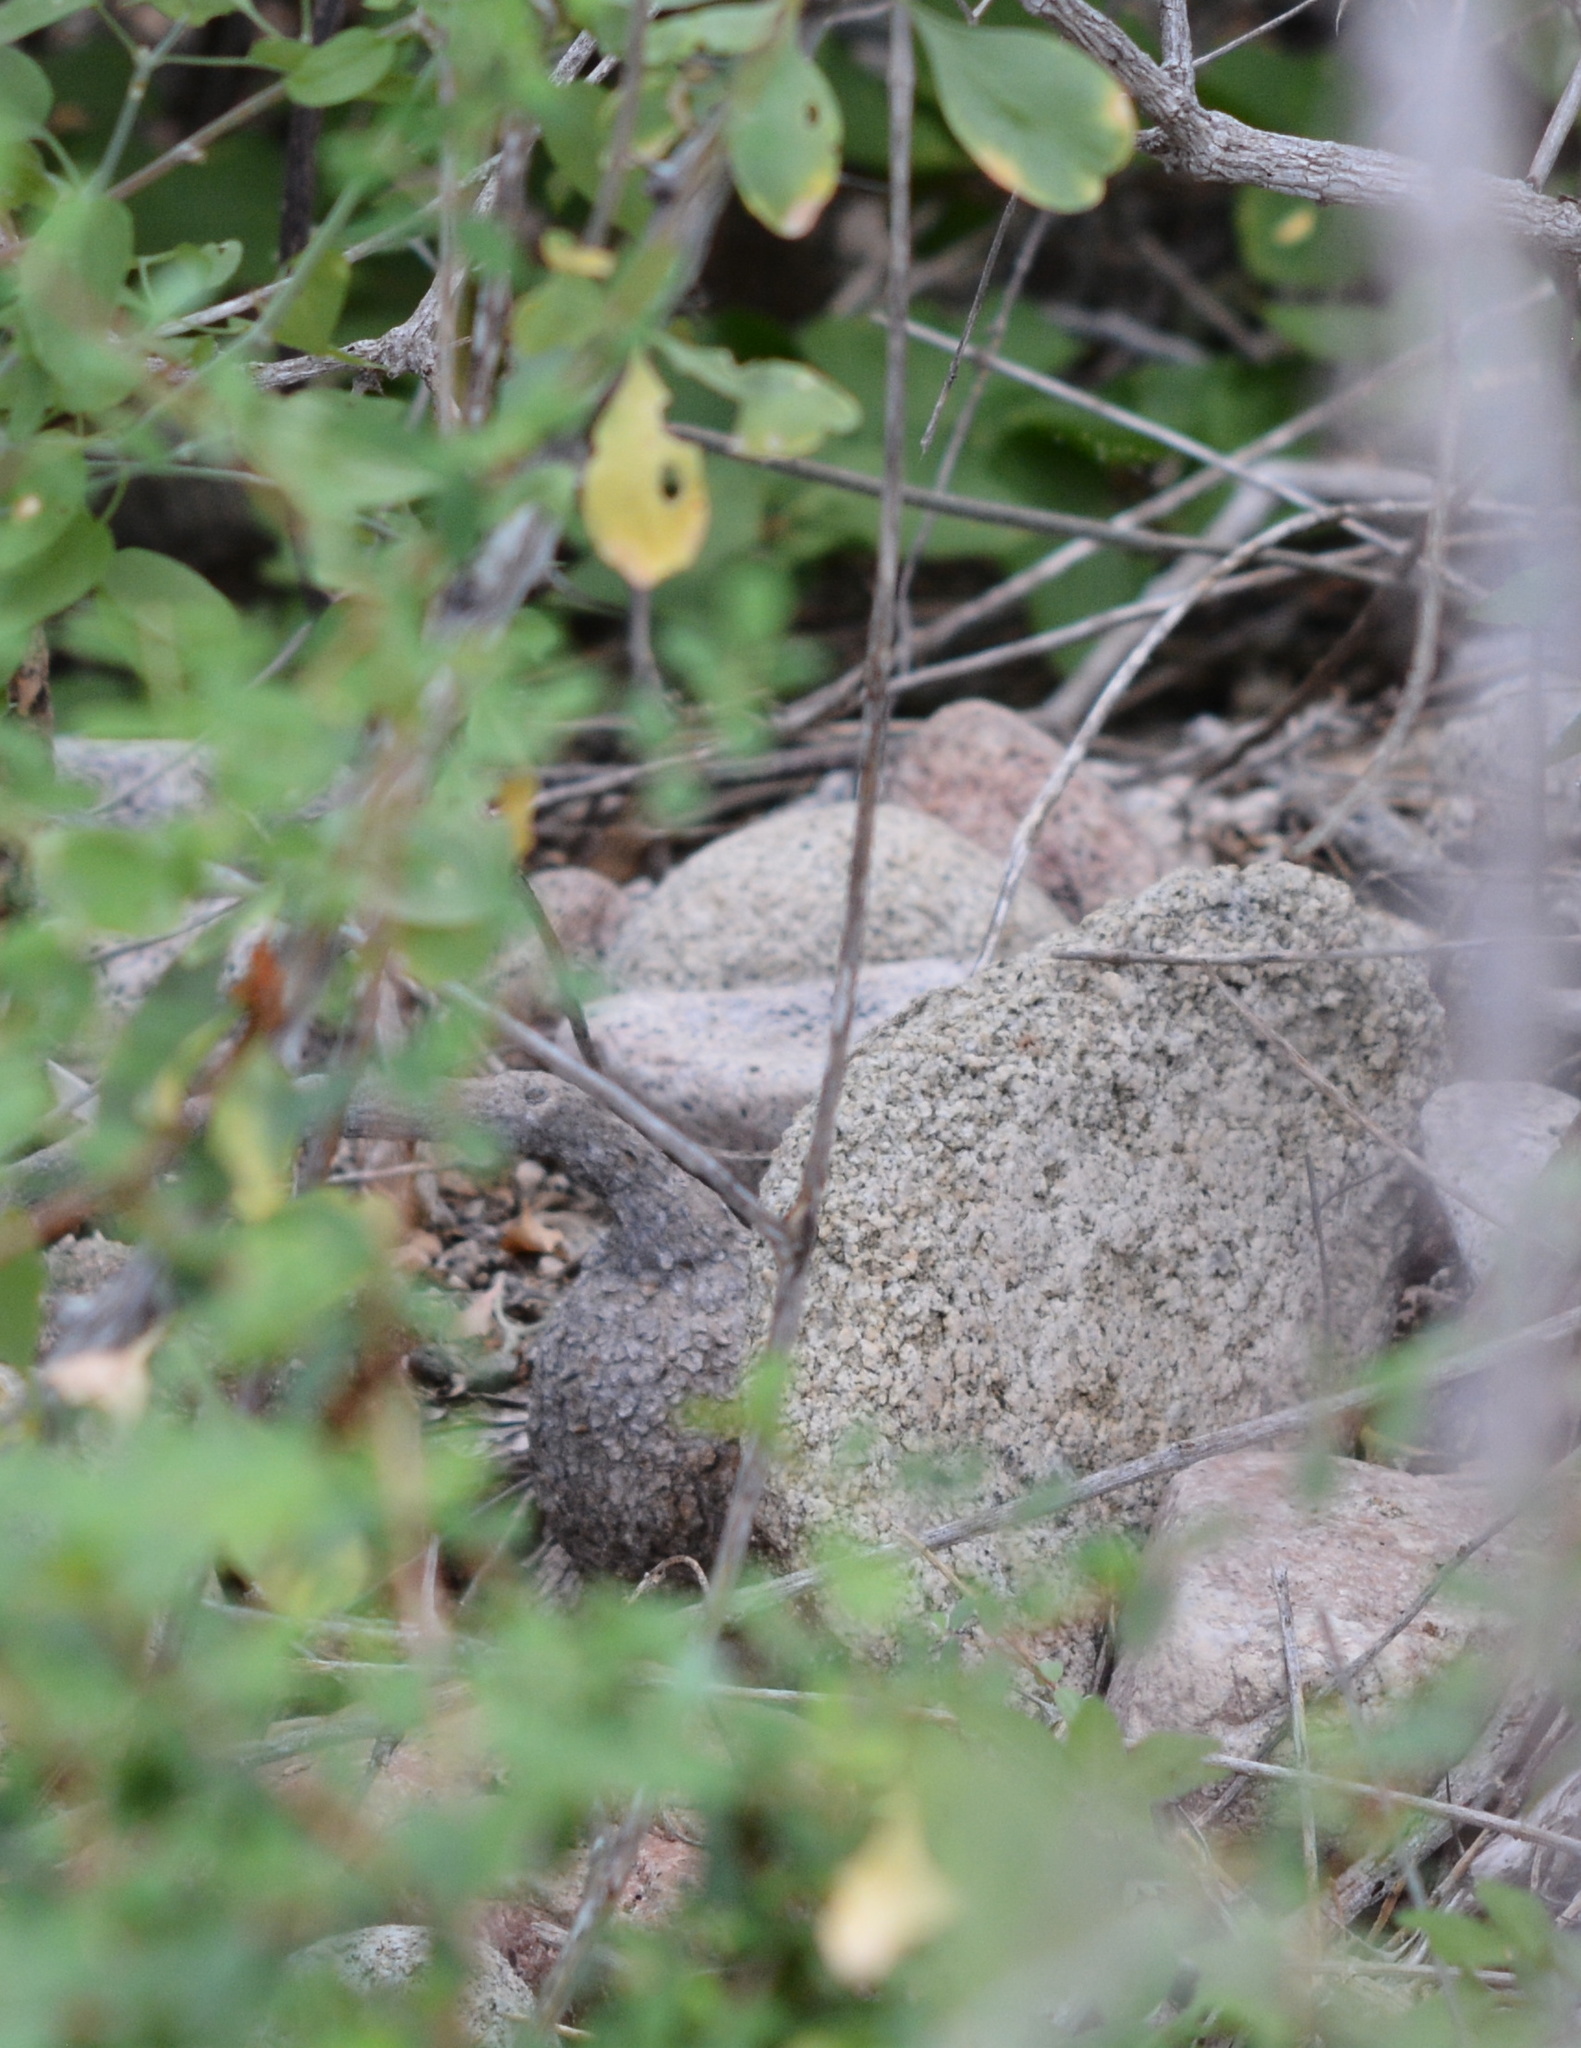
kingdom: Plantae
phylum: Tracheophyta
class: Magnoliopsida
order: Cucurbitales
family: Cucurbitaceae
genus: Ibervillea
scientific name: Ibervillea sonorae
